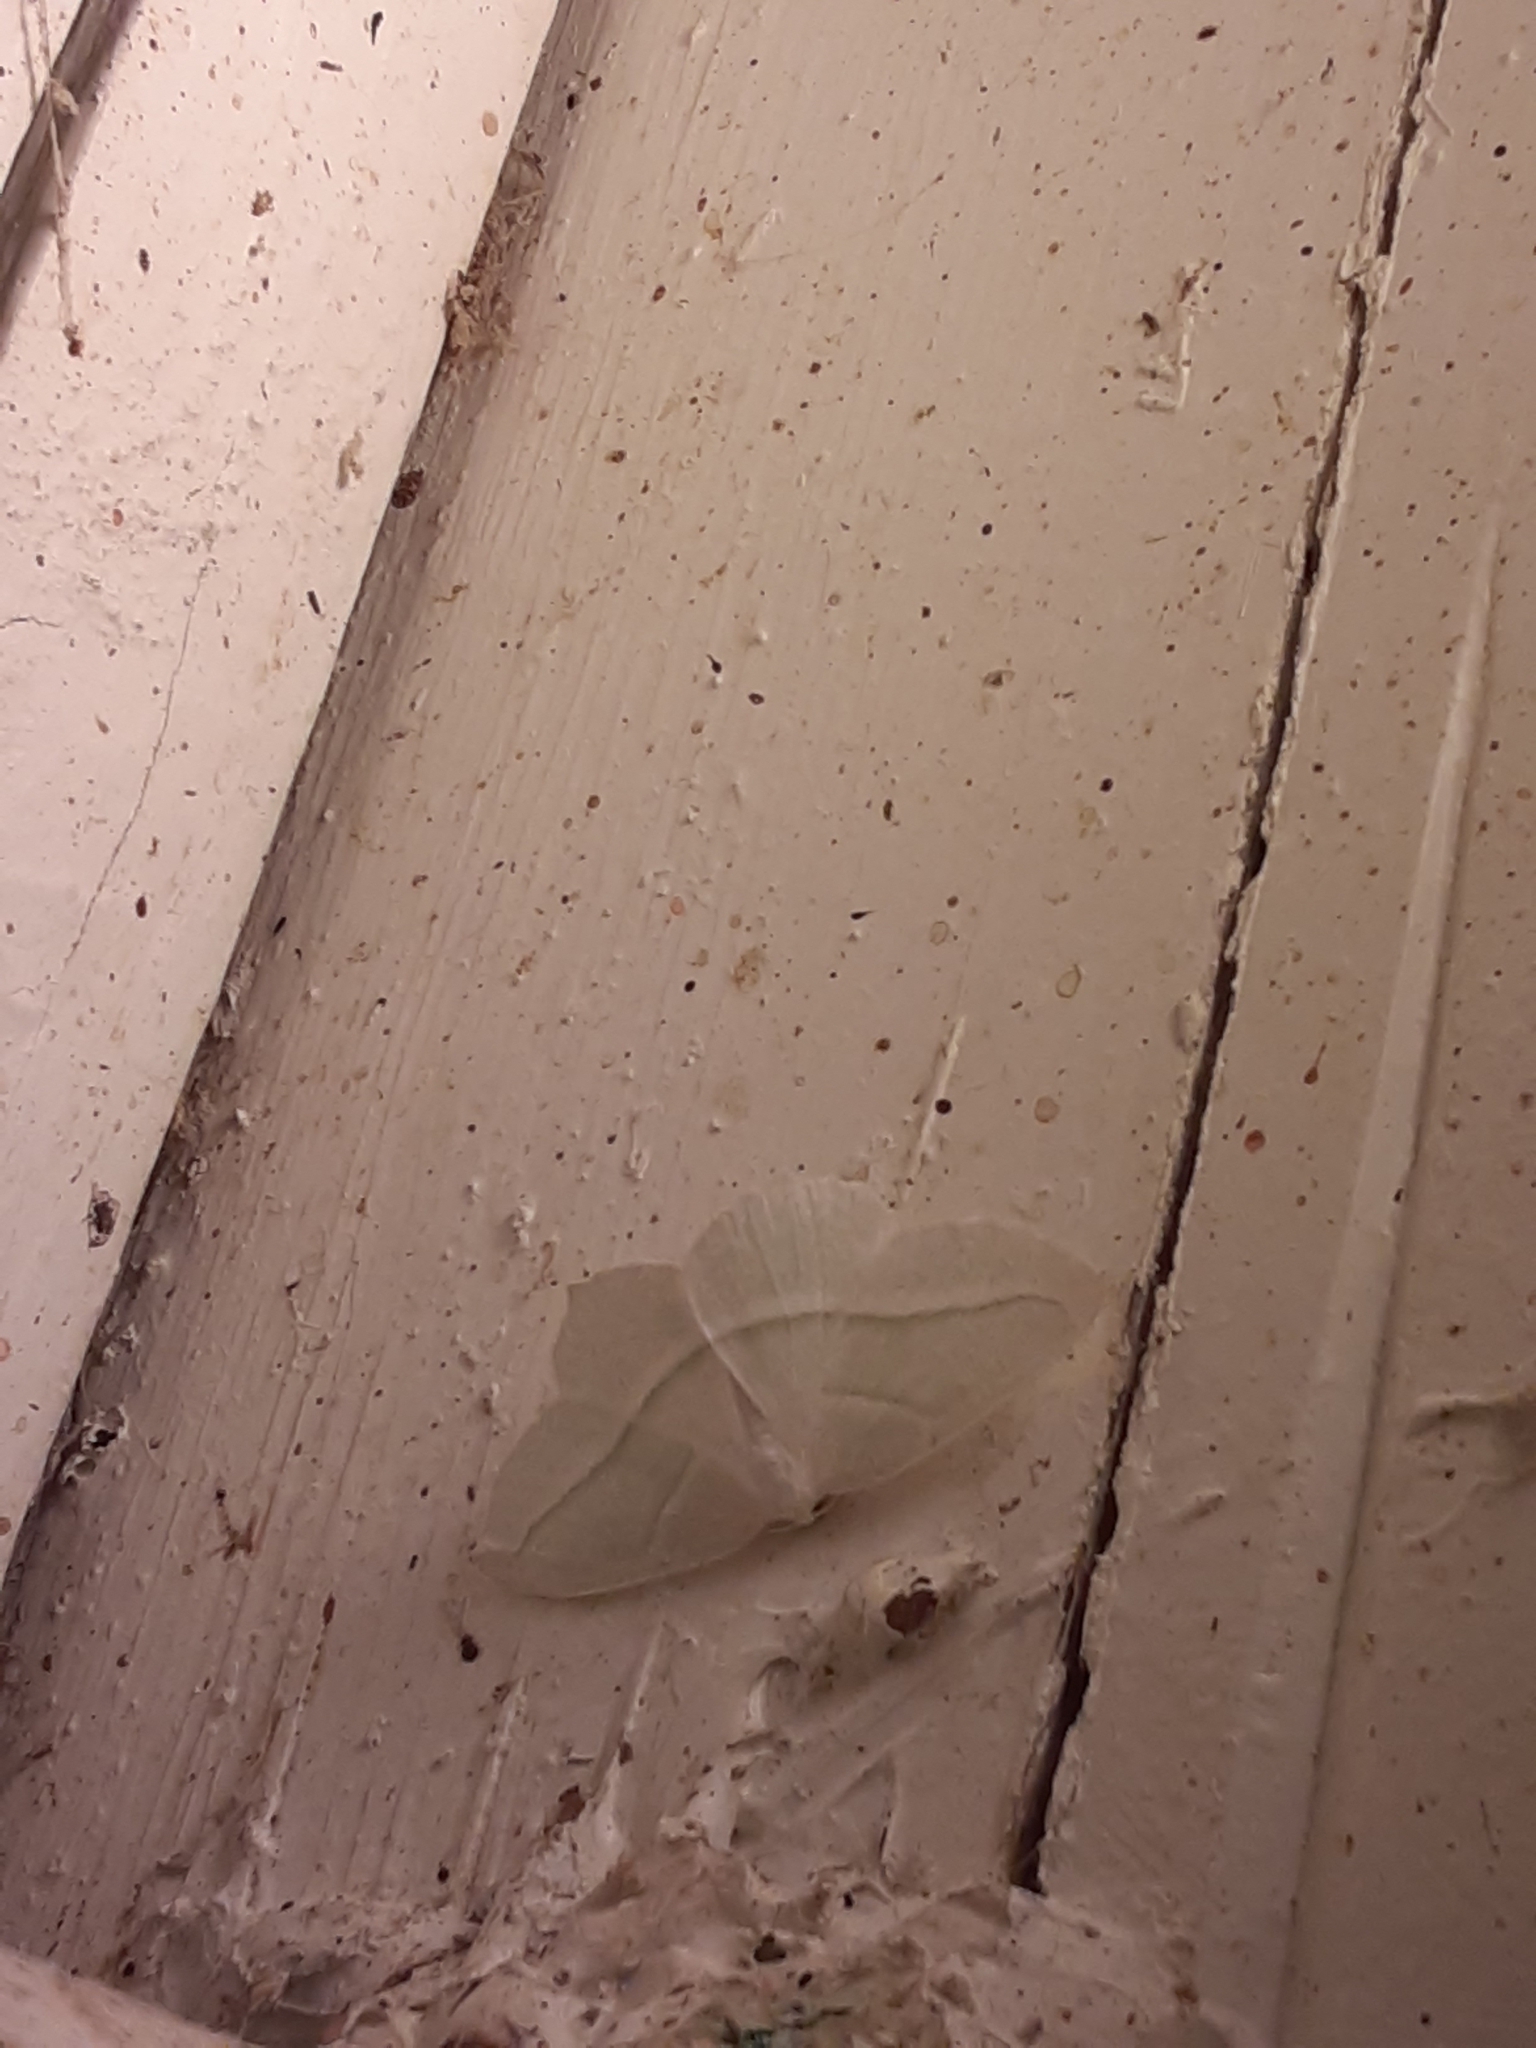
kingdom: Animalia
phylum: Arthropoda
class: Insecta
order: Lepidoptera
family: Geometridae
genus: Campaea
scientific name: Campaea perlata
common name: Fringed looper
